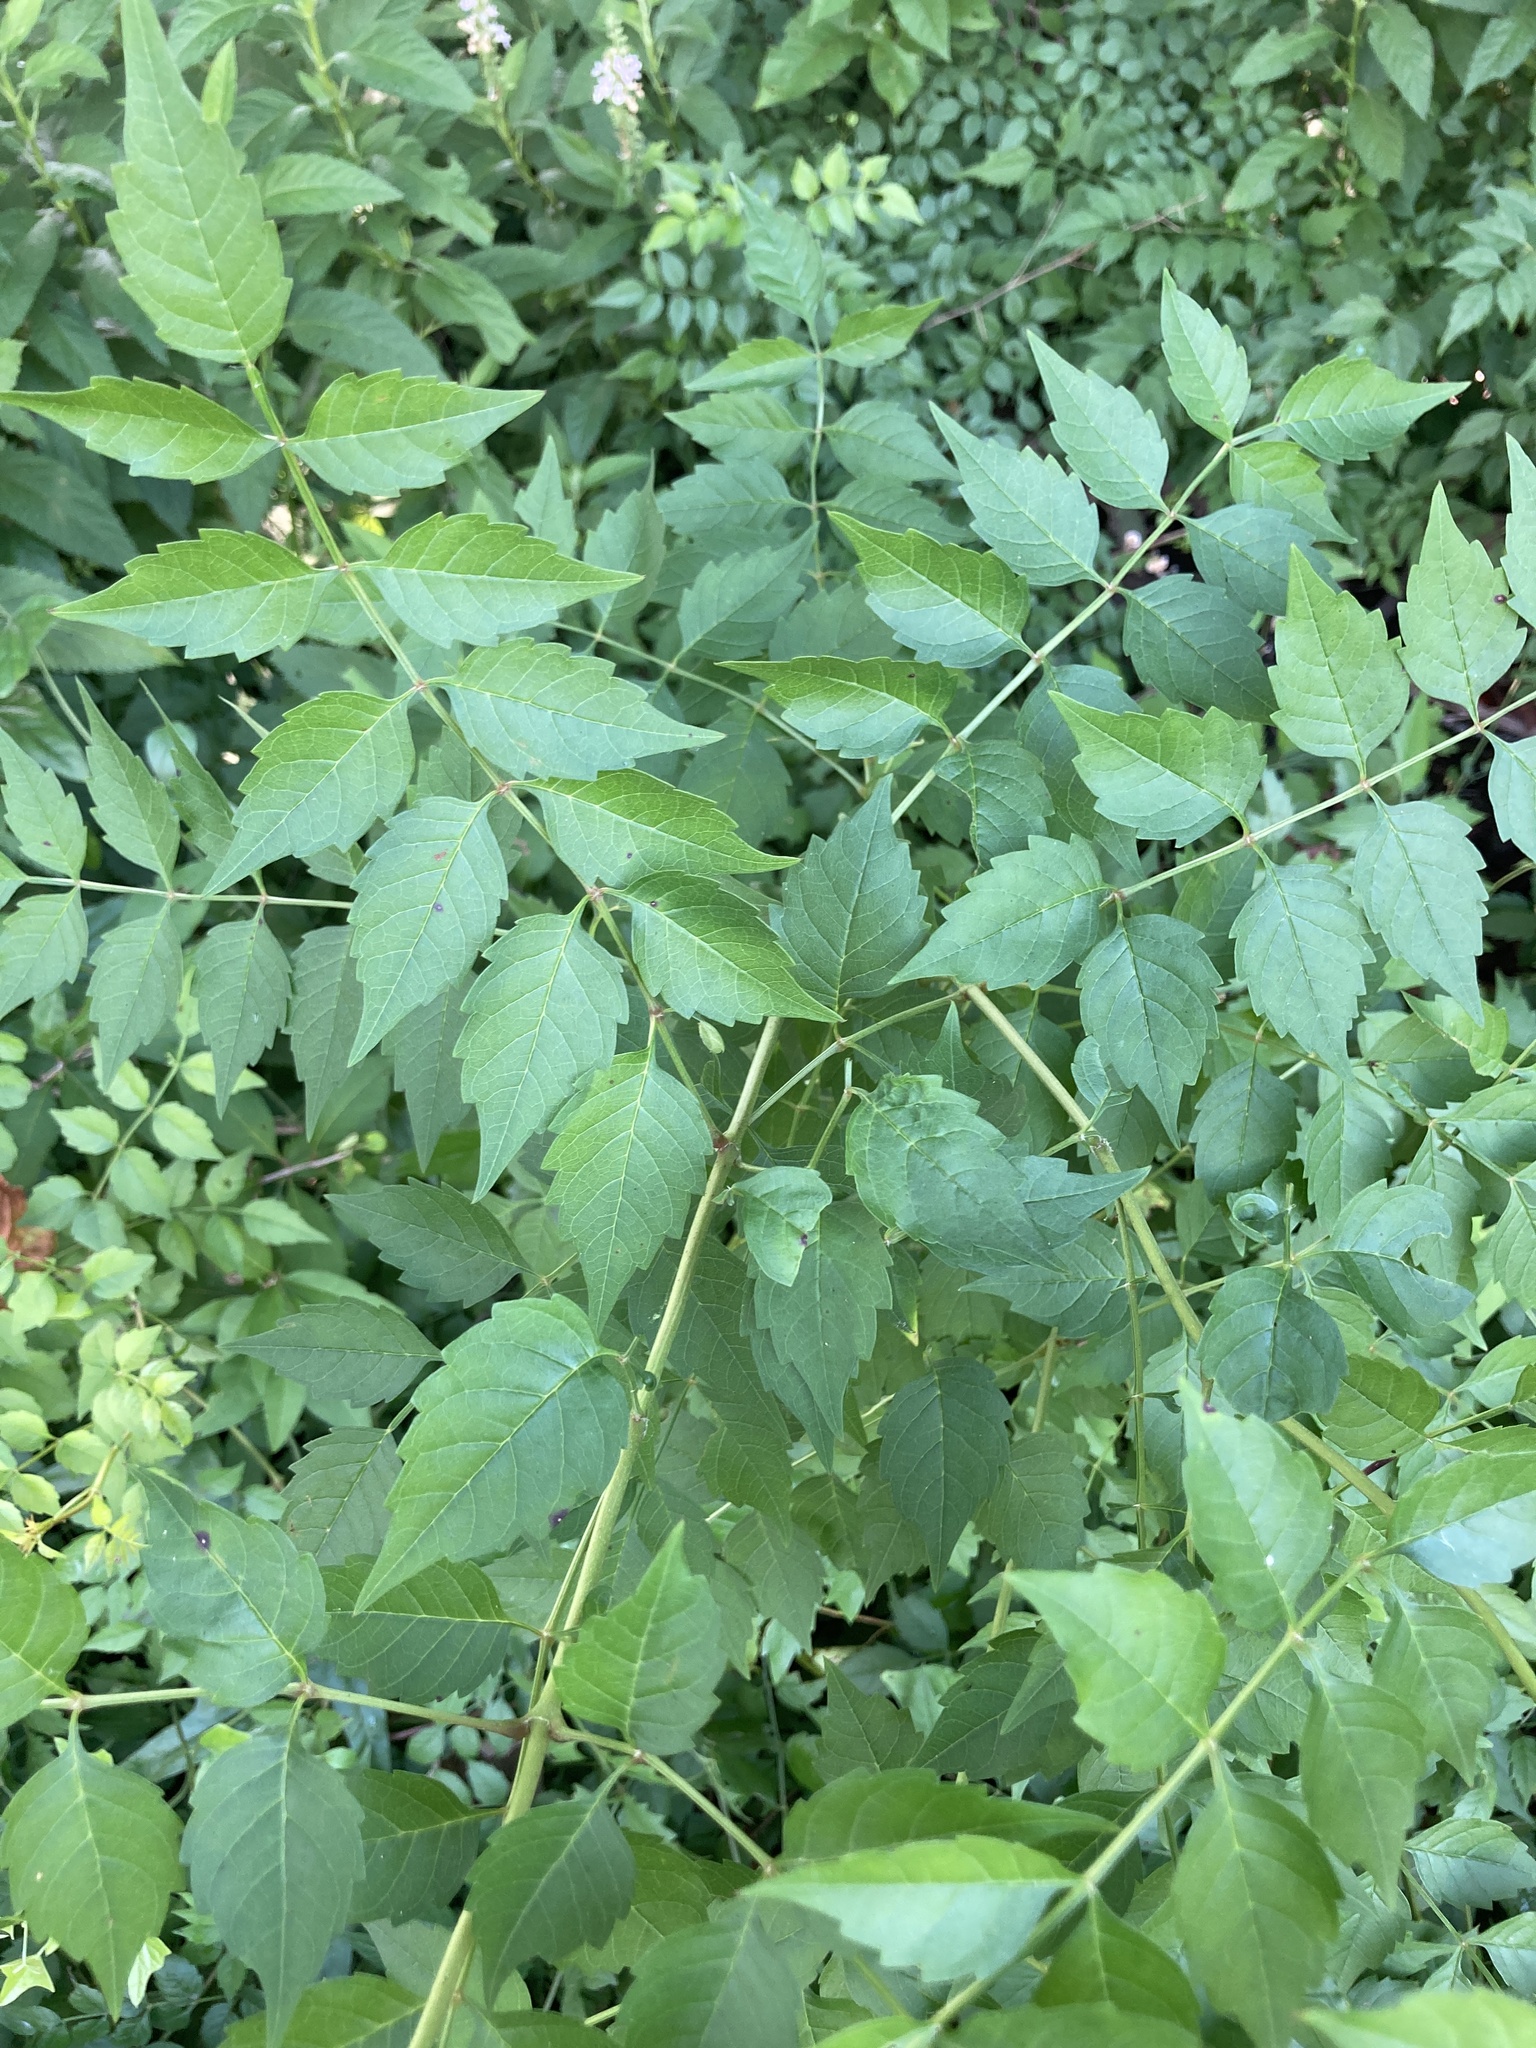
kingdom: Plantae
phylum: Tracheophyta
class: Magnoliopsida
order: Lamiales
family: Bignoniaceae
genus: Campsis
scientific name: Campsis radicans
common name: Trumpet-creeper
